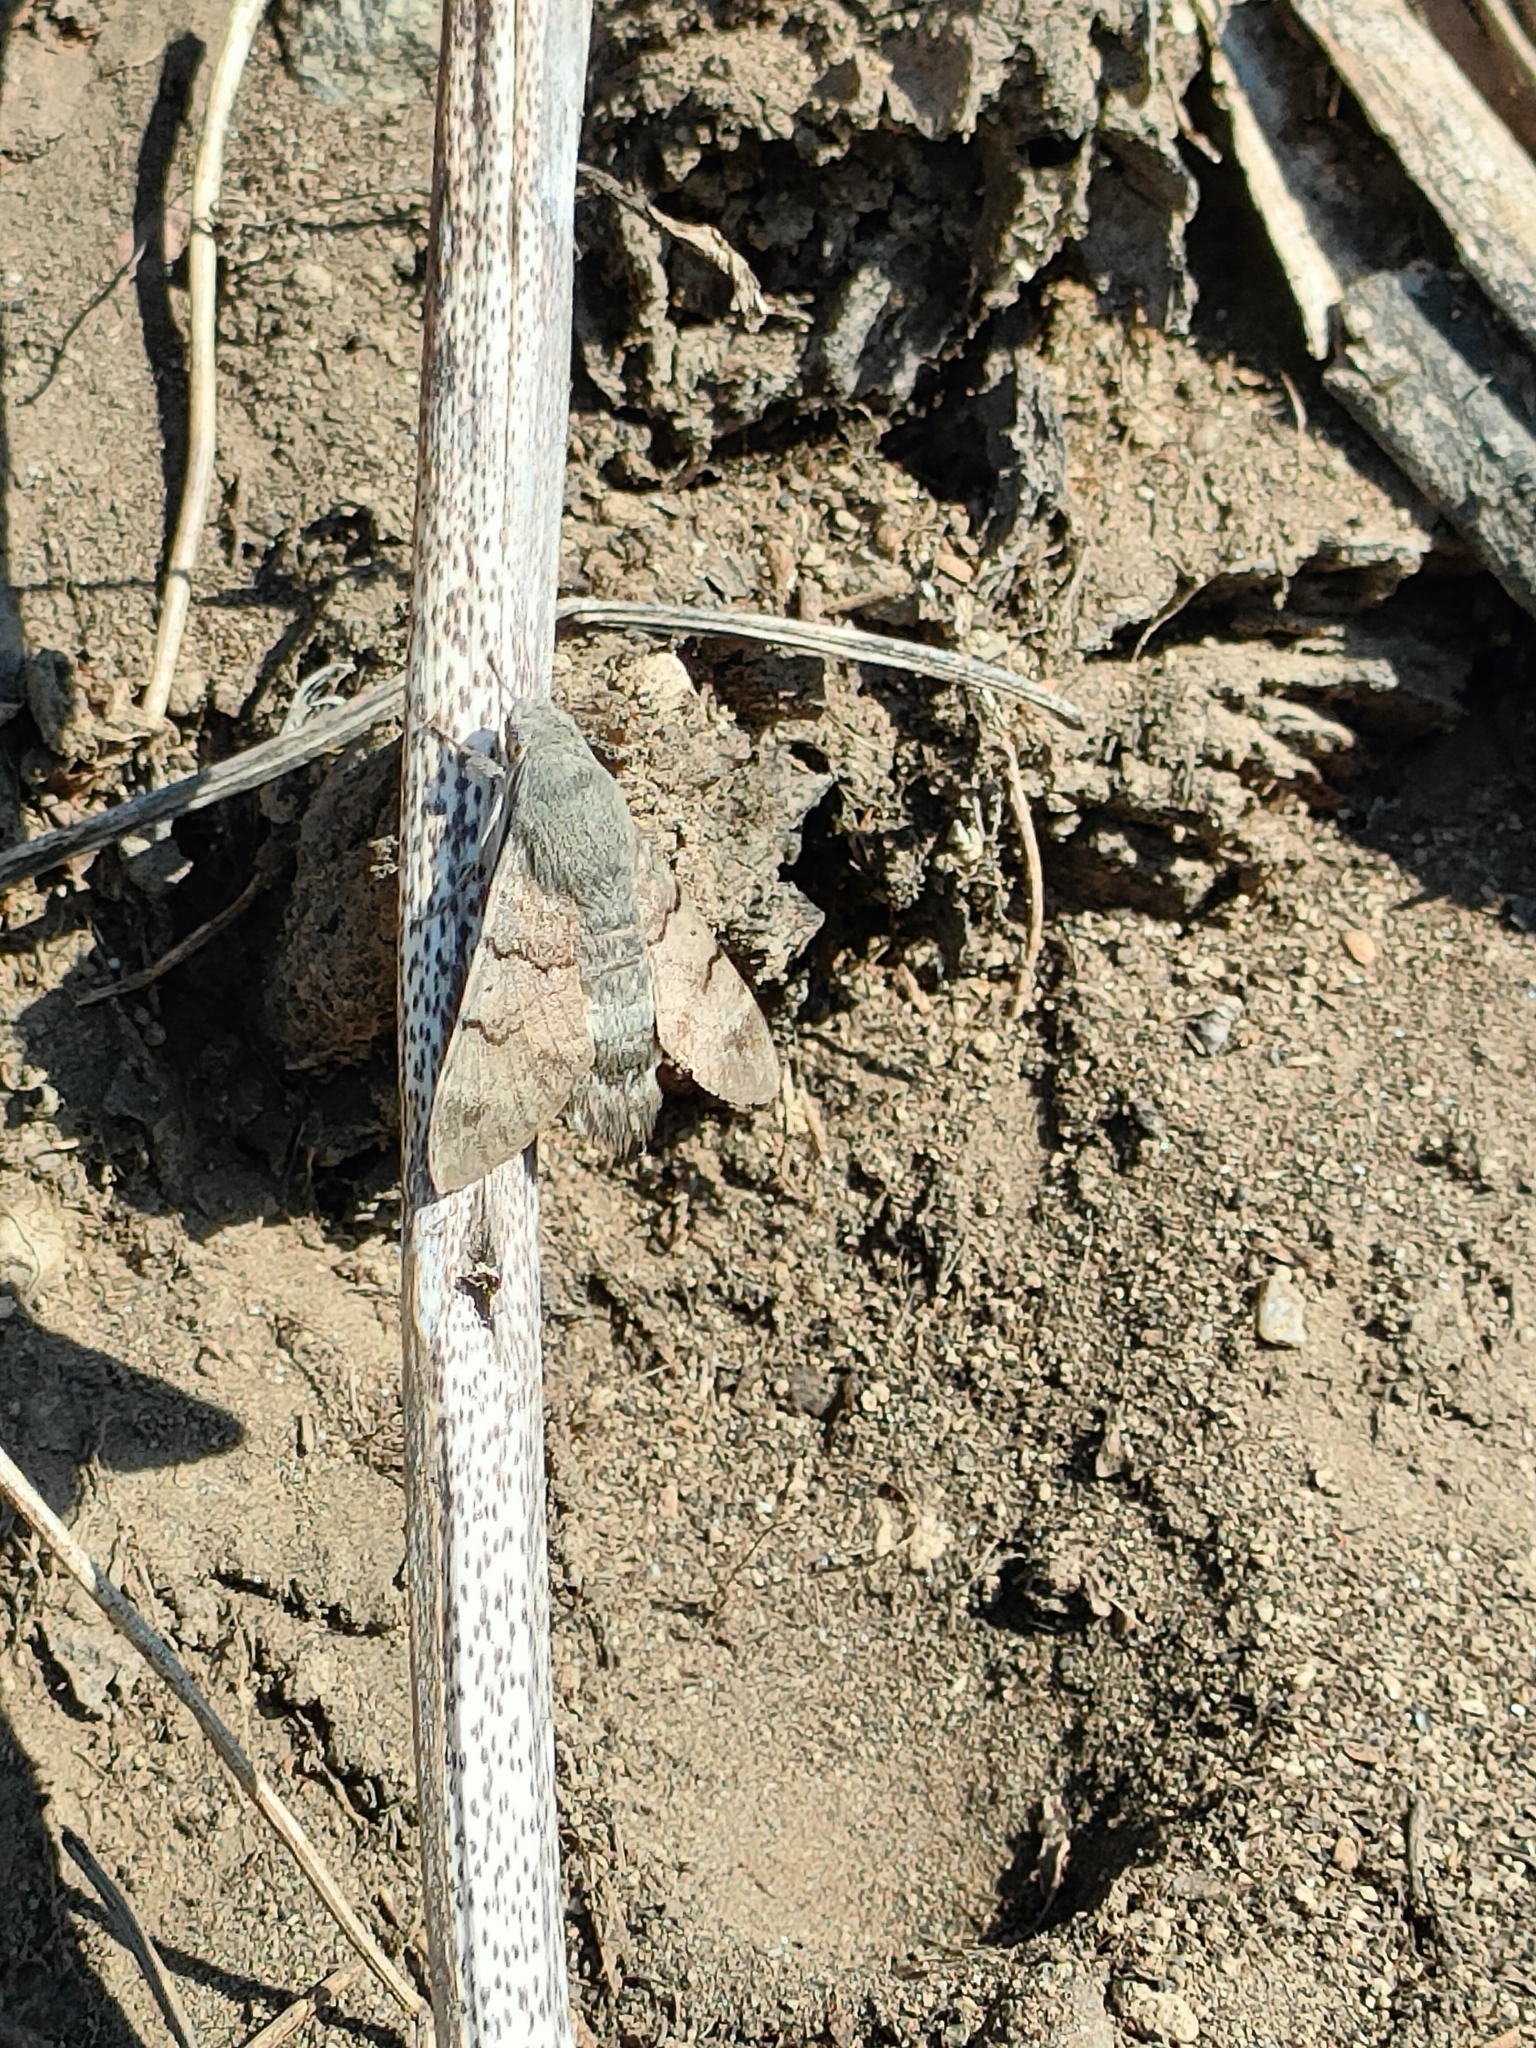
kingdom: Animalia
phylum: Arthropoda
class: Insecta
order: Lepidoptera
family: Sphingidae
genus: Macroglossum
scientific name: Macroglossum stellatarum
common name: Humming-bird hawk-moth
